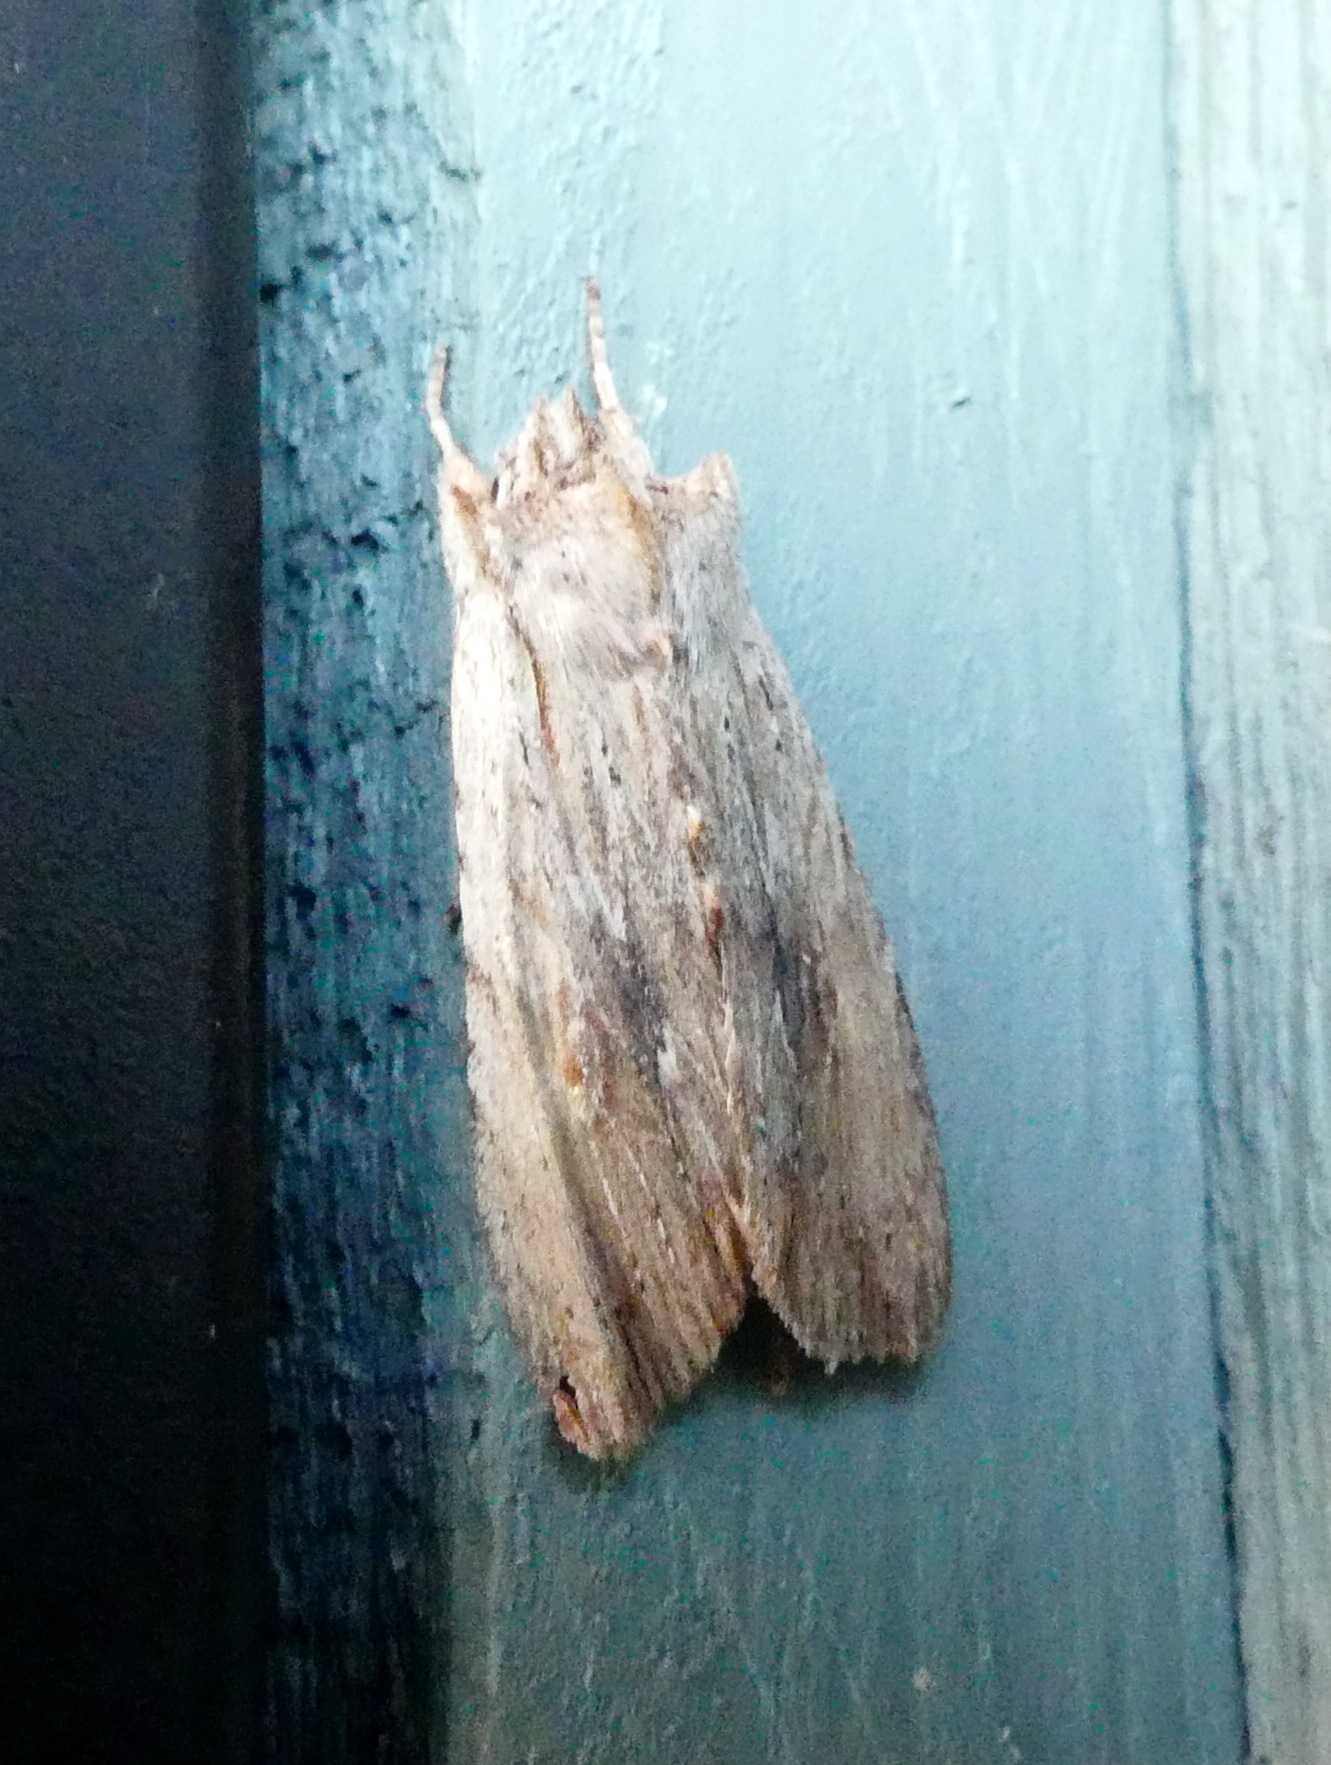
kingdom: Animalia
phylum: Arthropoda
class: Insecta
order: Lepidoptera
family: Noctuidae
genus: Lithophane
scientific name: Lithophane amanda
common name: Amanda's pinion moth
